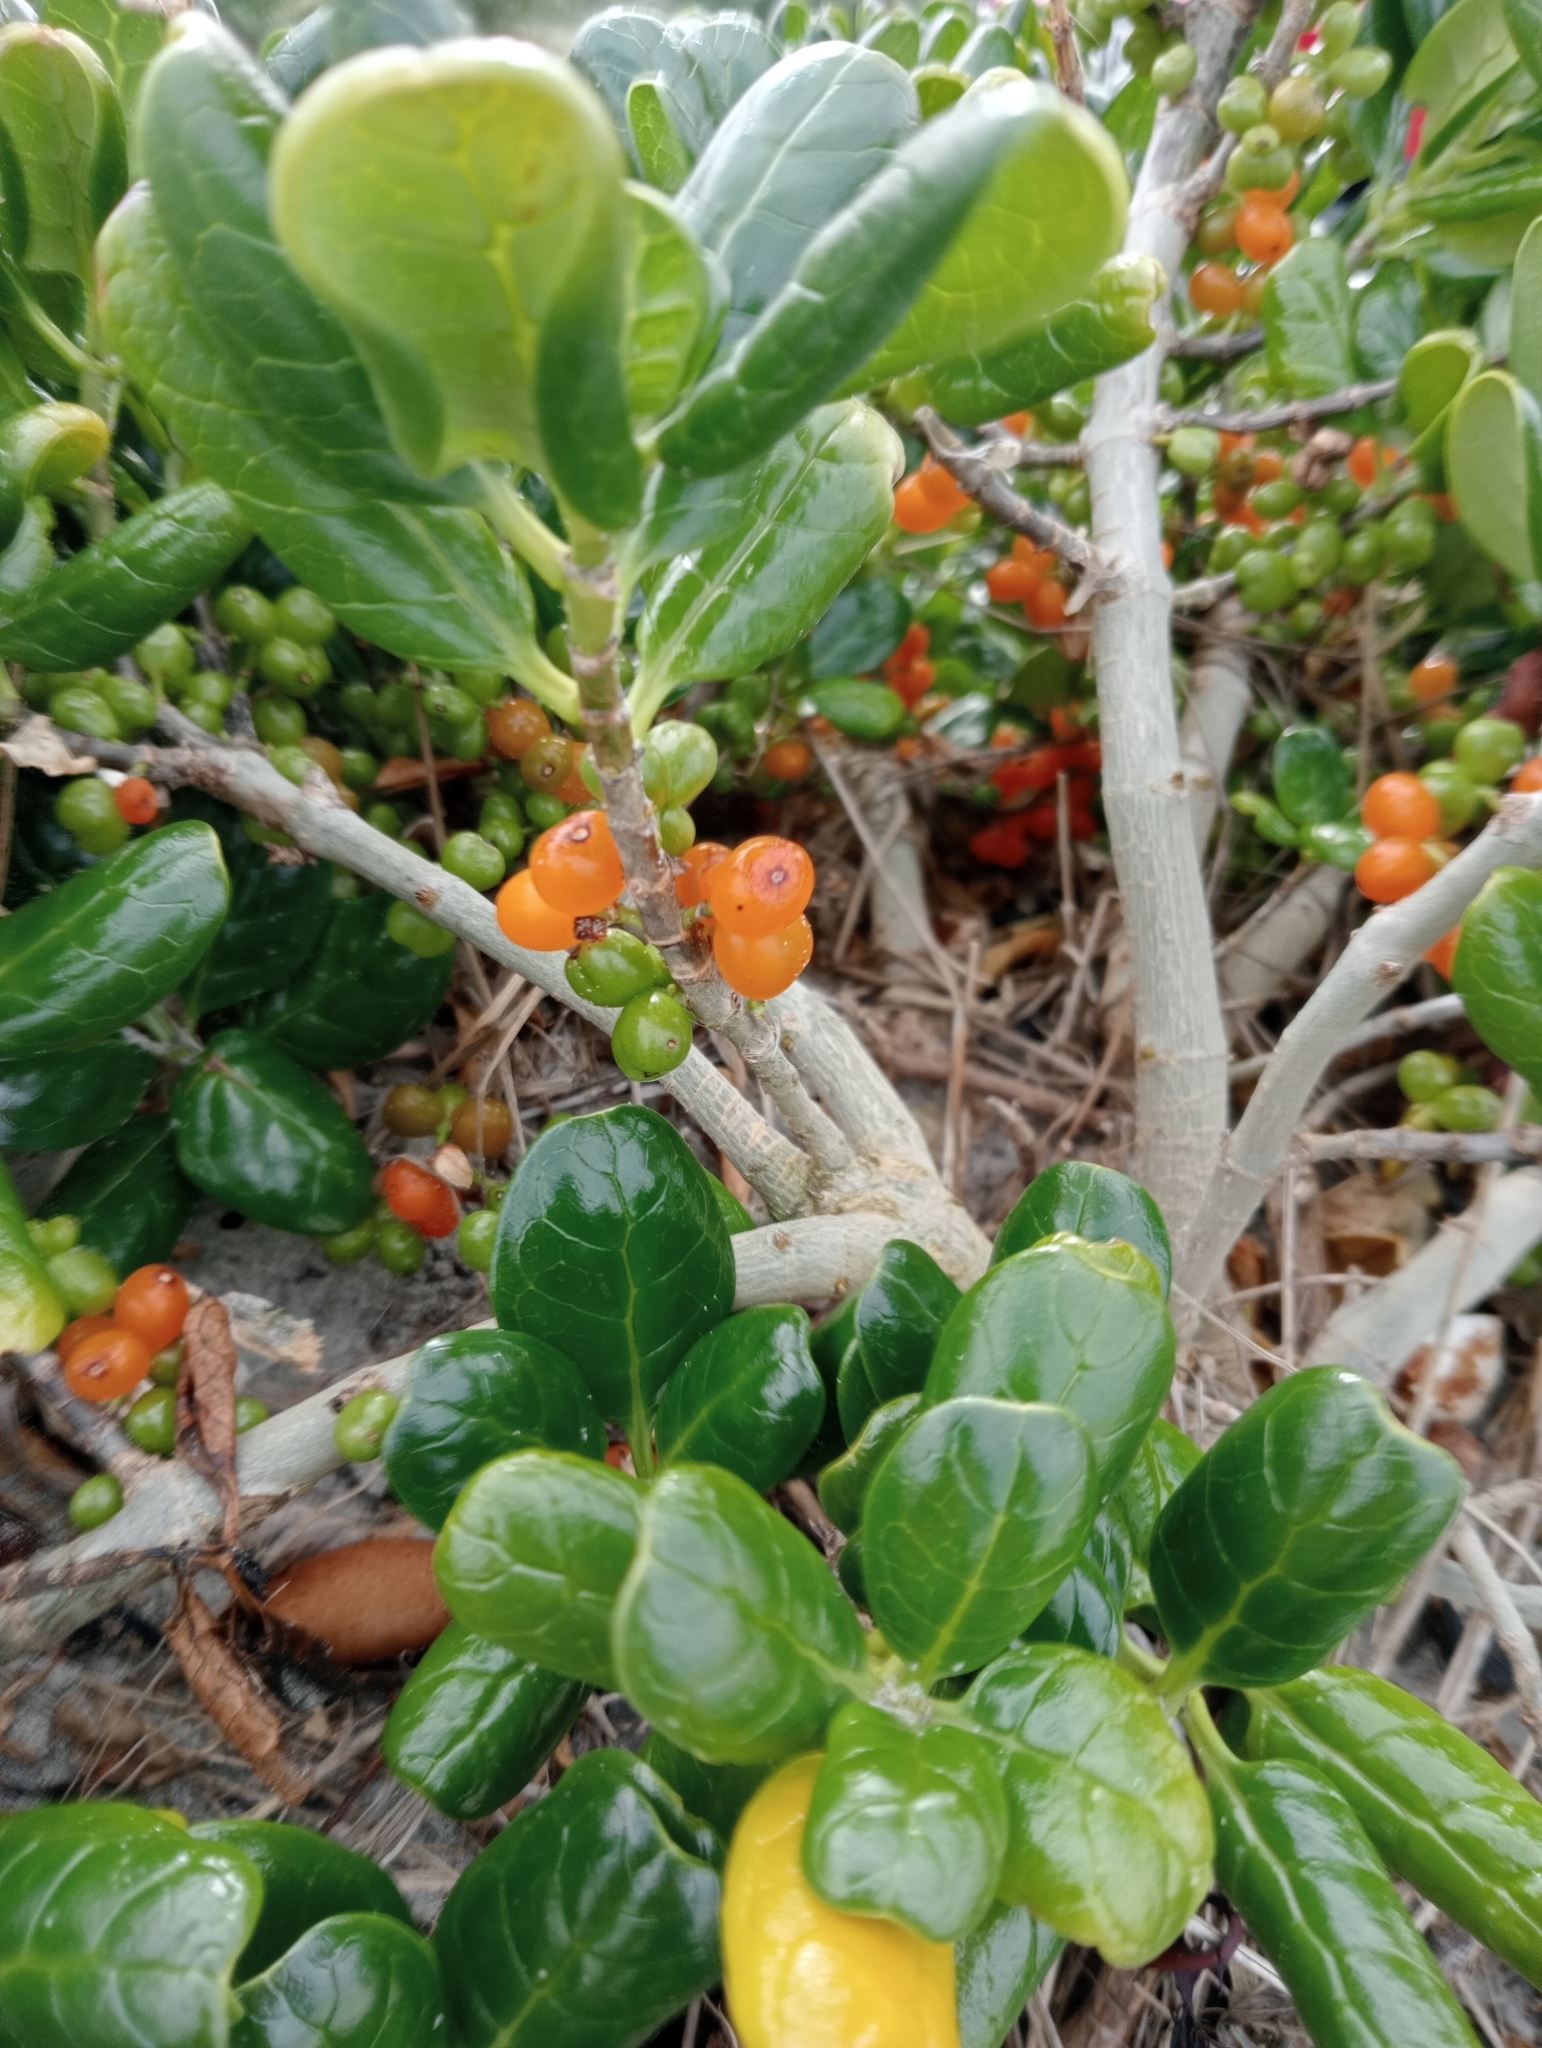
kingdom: Plantae
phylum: Tracheophyta
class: Magnoliopsida
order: Gentianales
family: Rubiaceae
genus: Coprosma
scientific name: Coprosma repens
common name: Tree bedstraw
